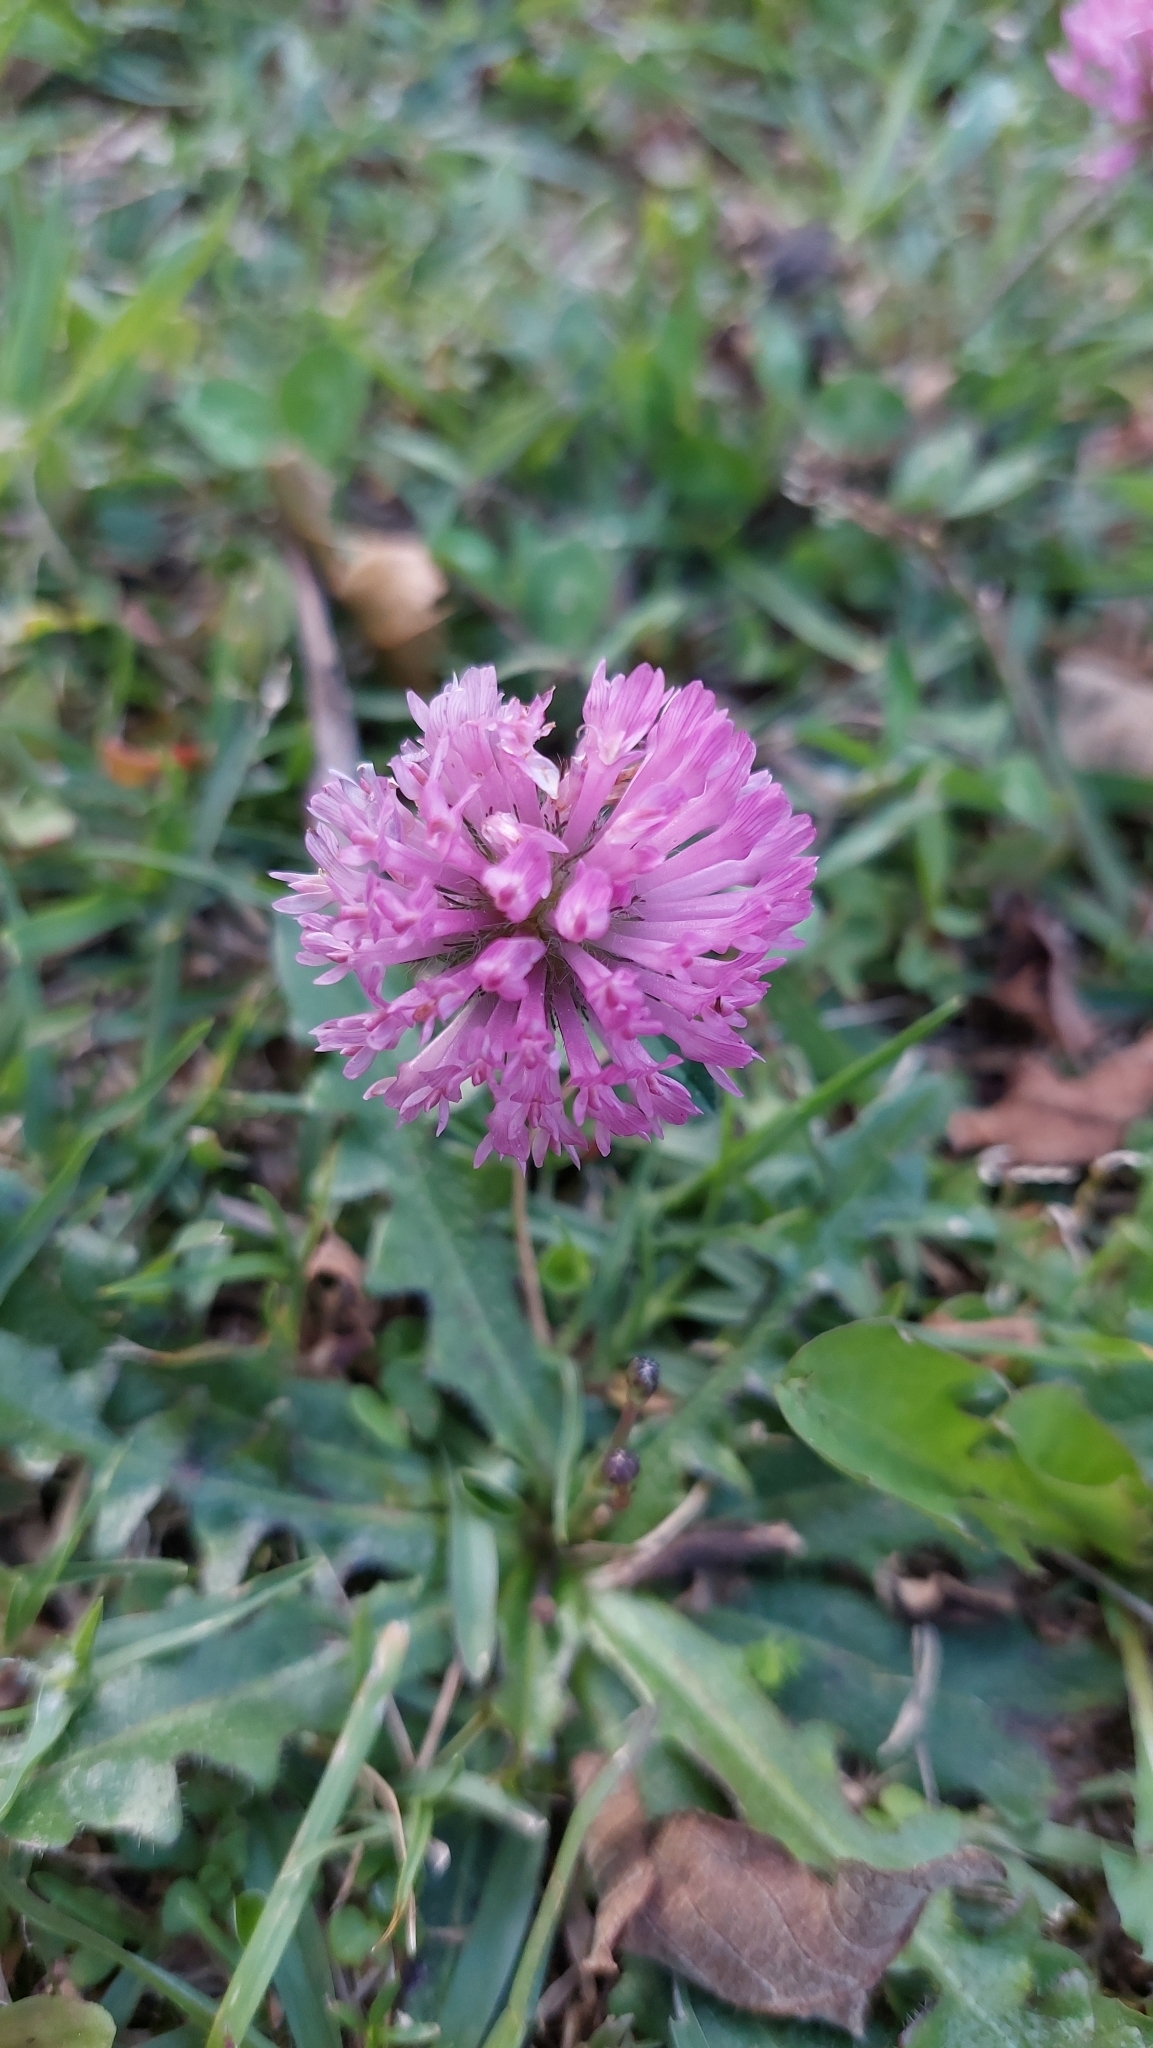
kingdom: Plantae
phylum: Tracheophyta
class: Magnoliopsida
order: Fabales
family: Fabaceae
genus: Trifolium
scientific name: Trifolium pratense
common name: Red clover
